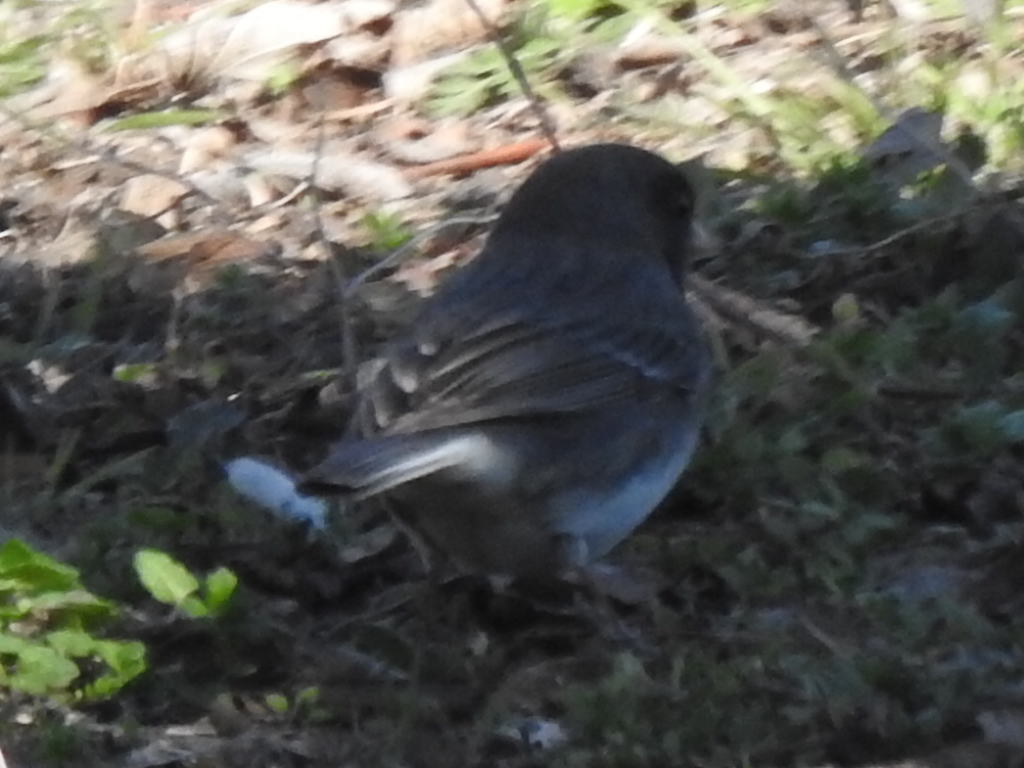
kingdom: Animalia
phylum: Chordata
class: Aves
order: Passeriformes
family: Passerellidae
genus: Junco
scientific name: Junco hyemalis
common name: Dark-eyed junco
